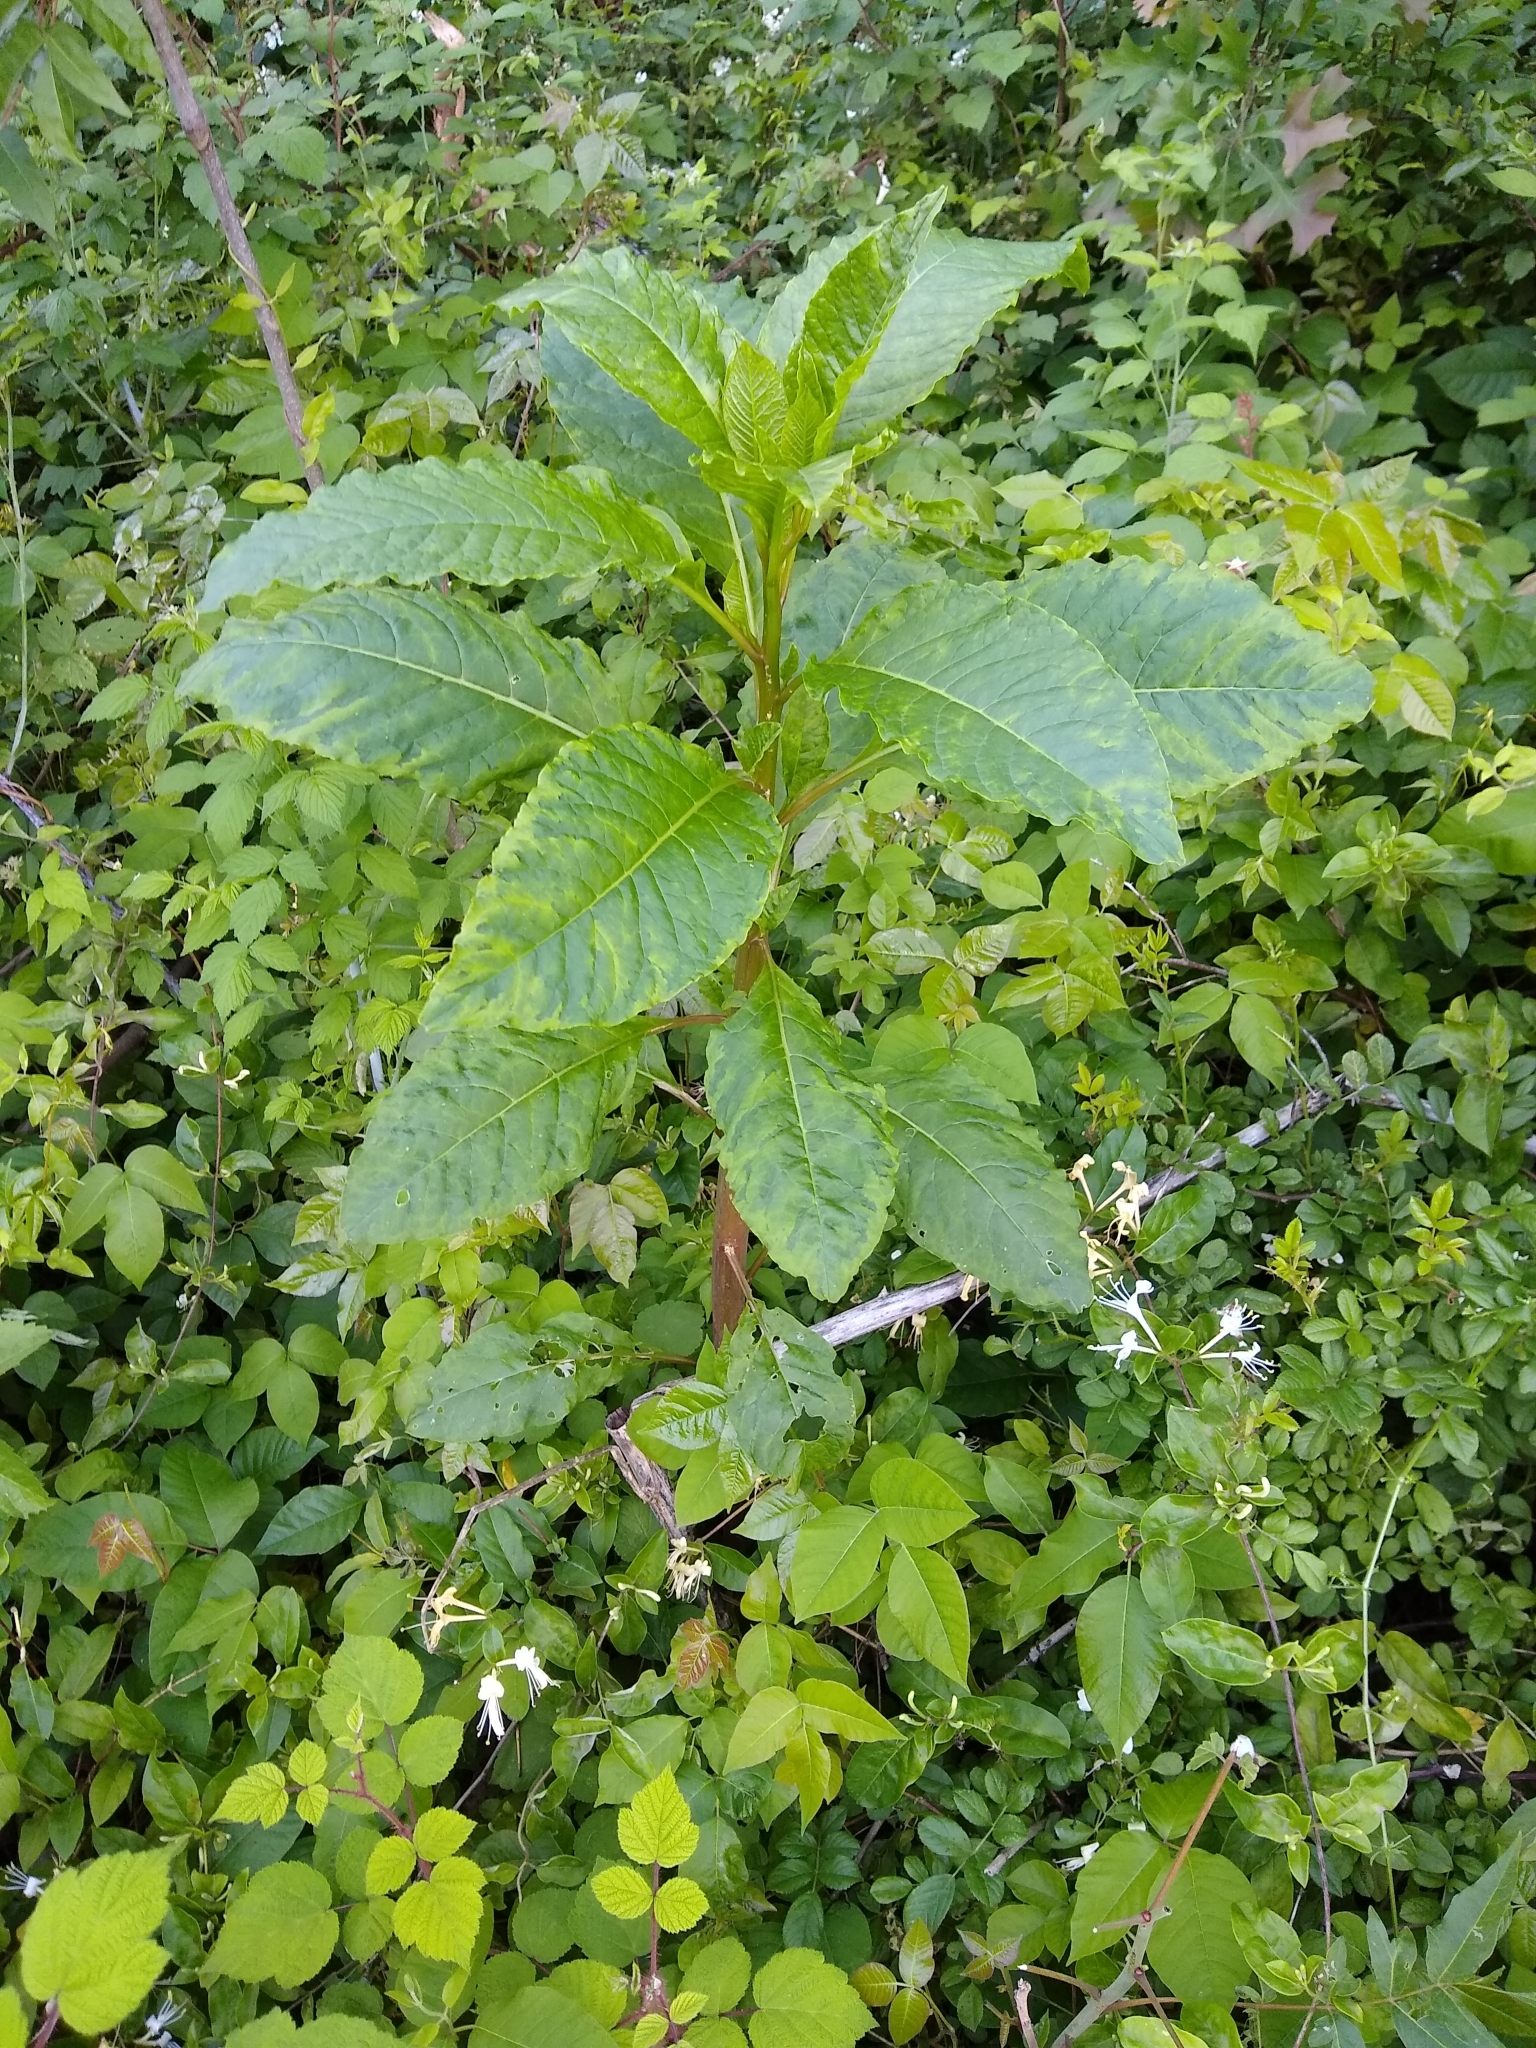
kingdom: Viruses
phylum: Pisuviricota
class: Stelpaviricetes
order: Patatavirales
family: Potyviridae
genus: Potyvirus
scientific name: Potyvirus Pokeweed mosaic virus
